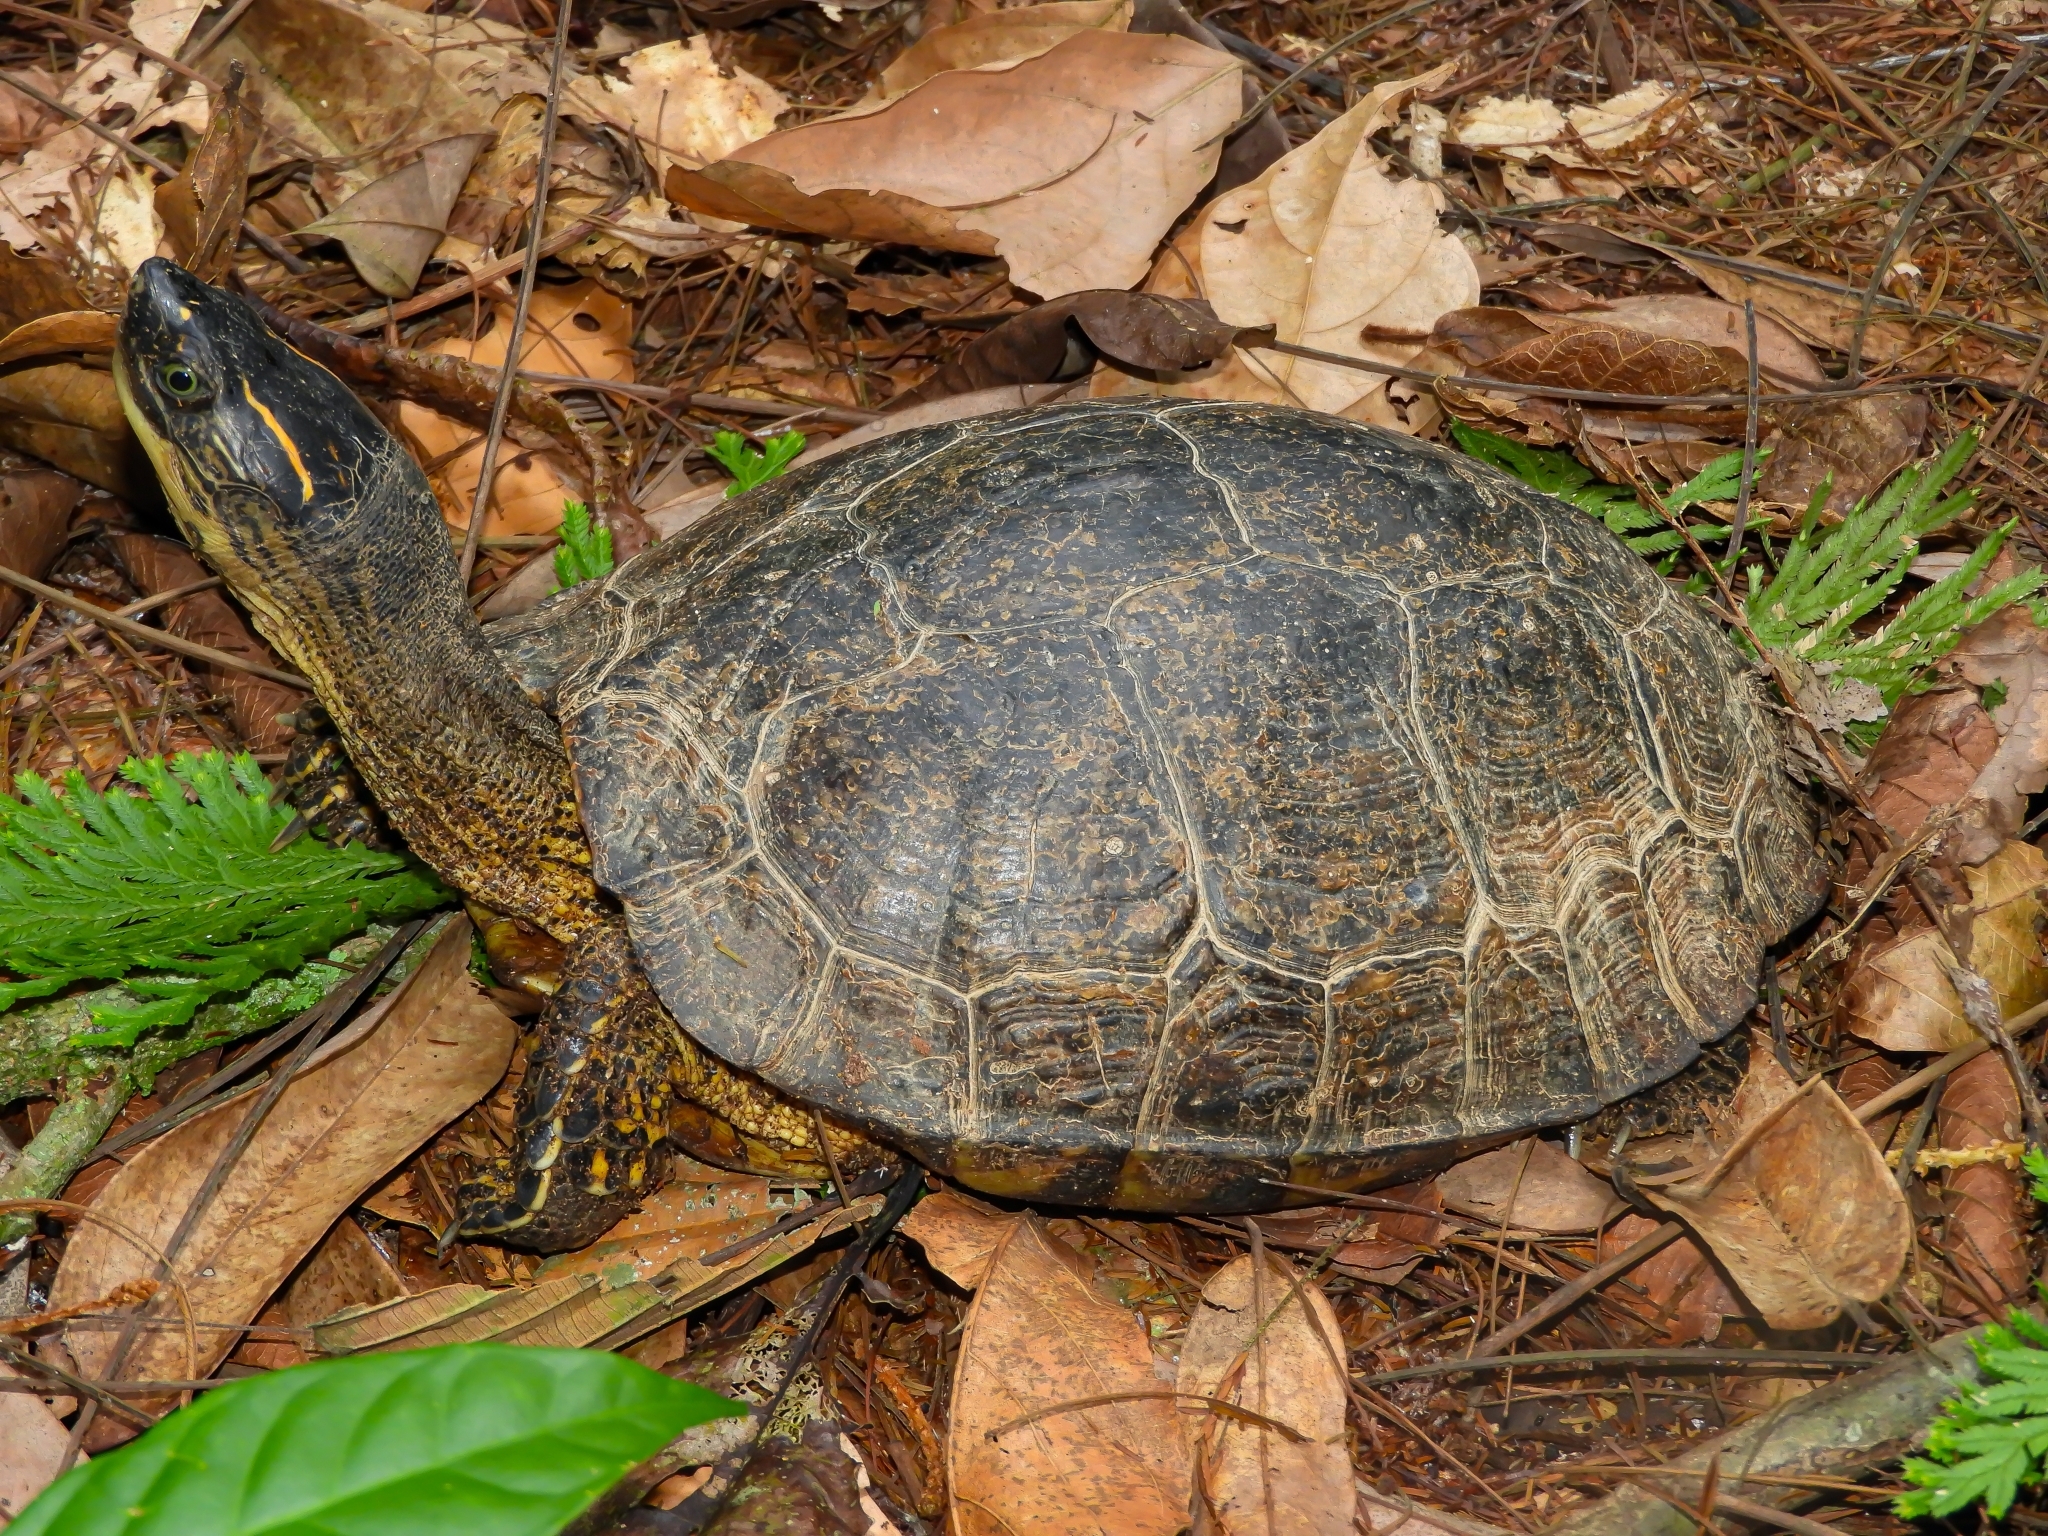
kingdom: Animalia
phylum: Chordata
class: Testudines
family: Geoemydidae
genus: Rhinoclemmys
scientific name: Rhinoclemmys melanosterna
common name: Colombian wood turtle
